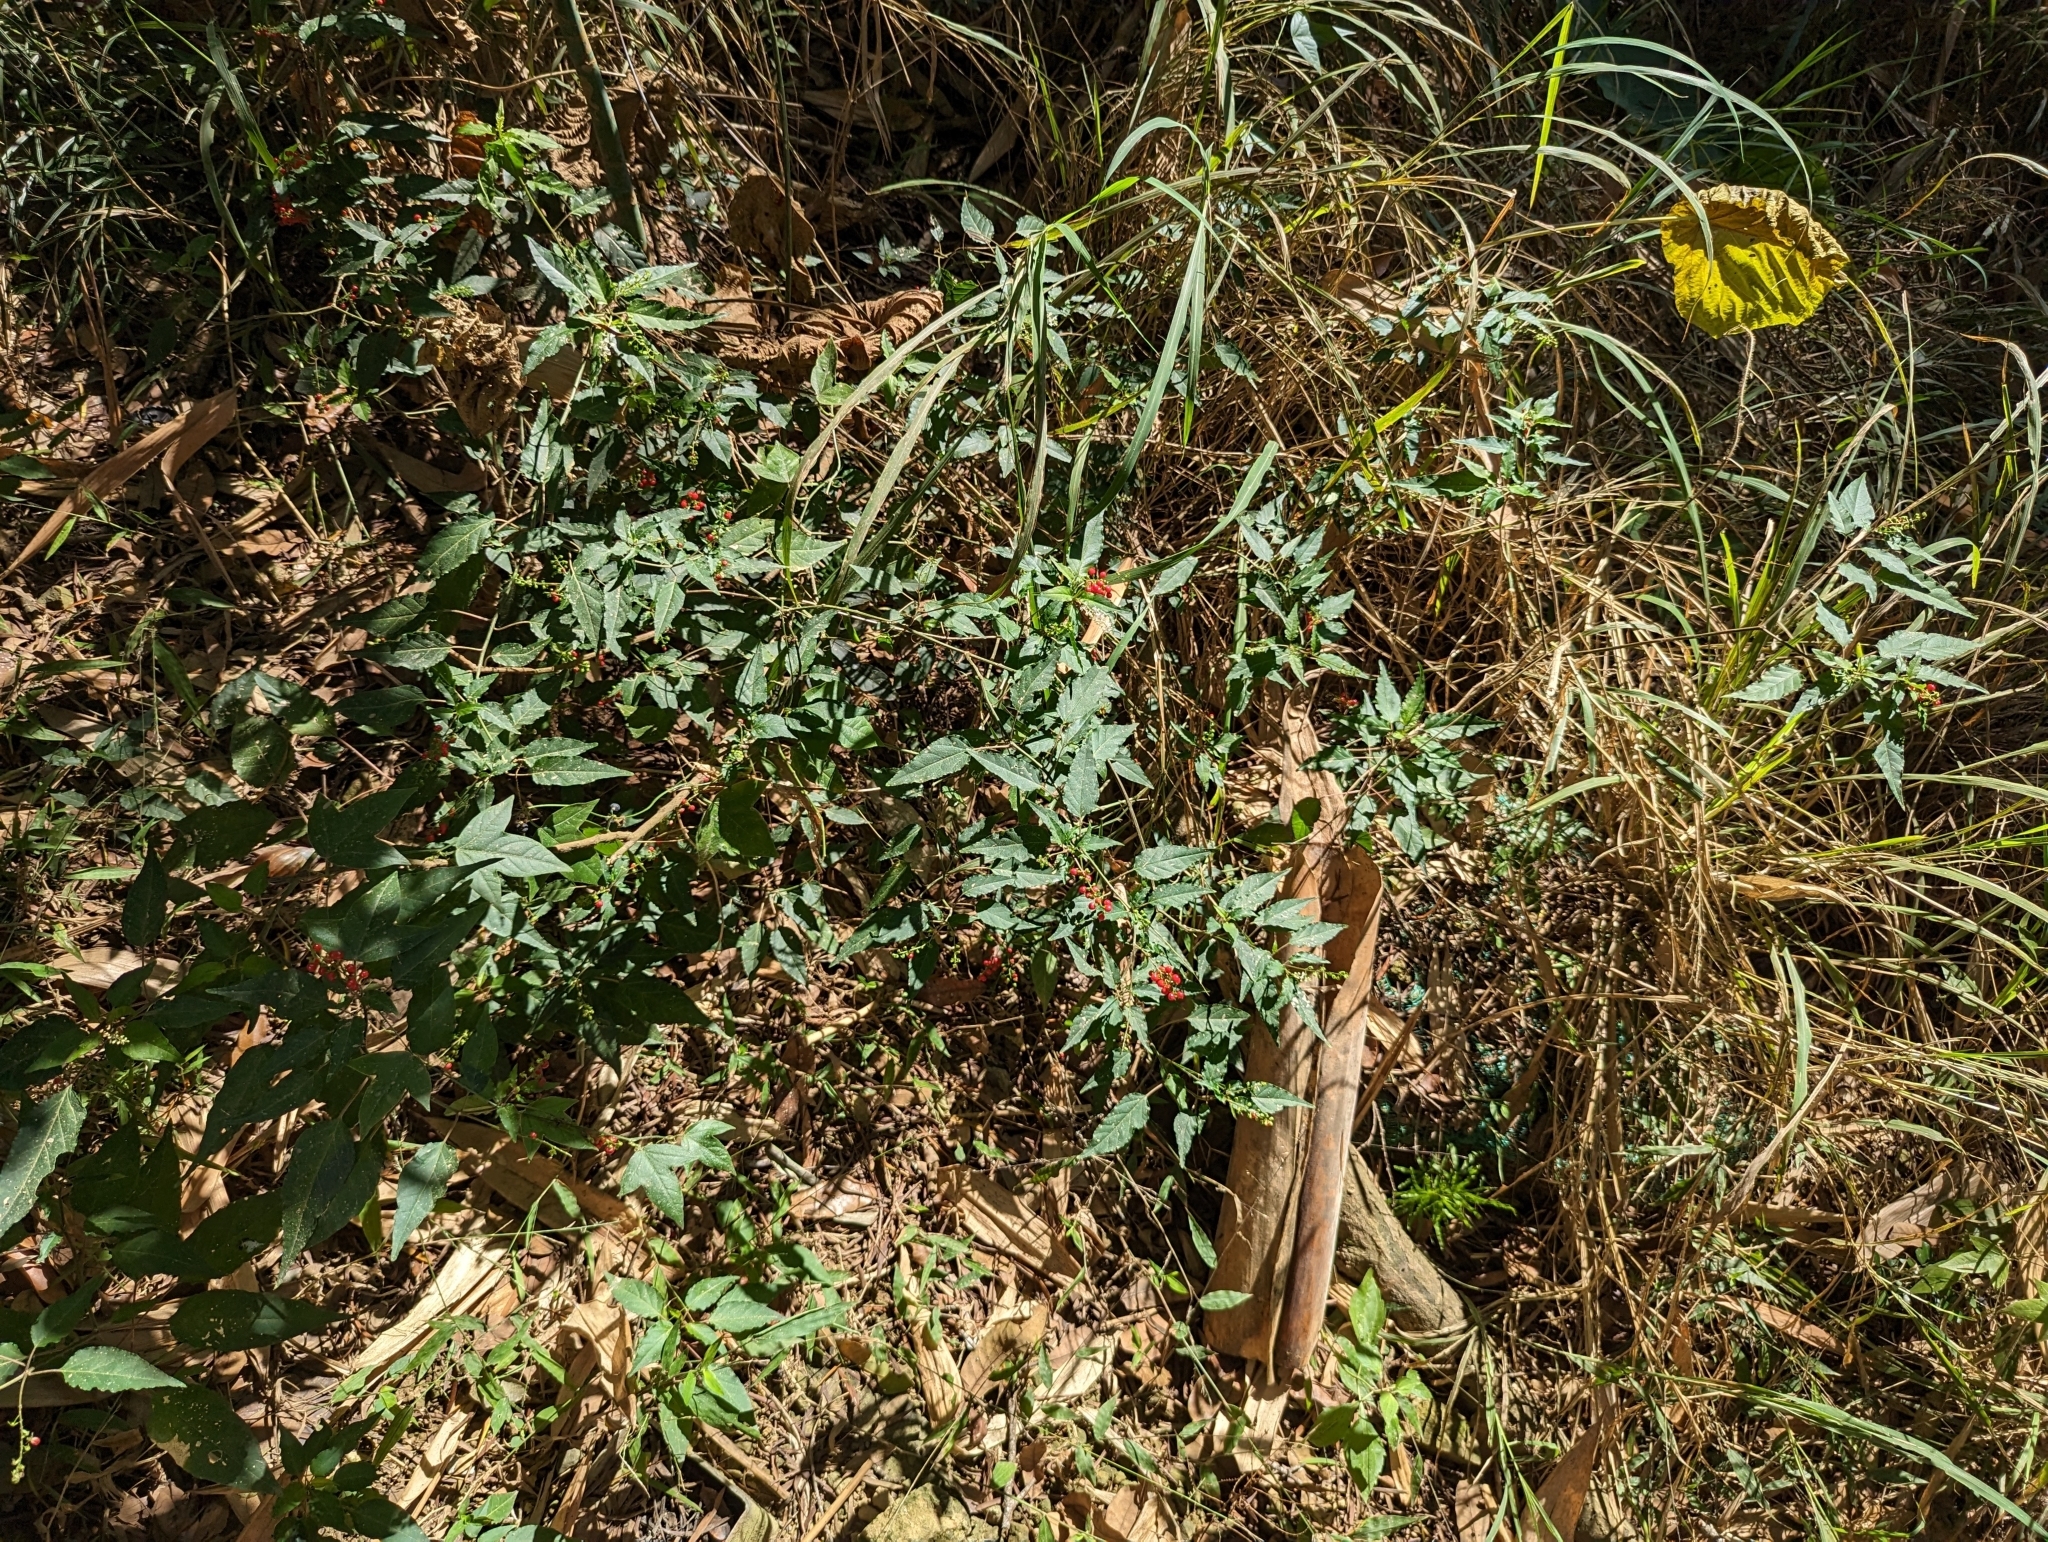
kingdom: Plantae
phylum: Tracheophyta
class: Magnoliopsida
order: Caryophyllales
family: Phytolaccaceae
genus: Rivina
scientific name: Rivina humilis
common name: Rougeplant
